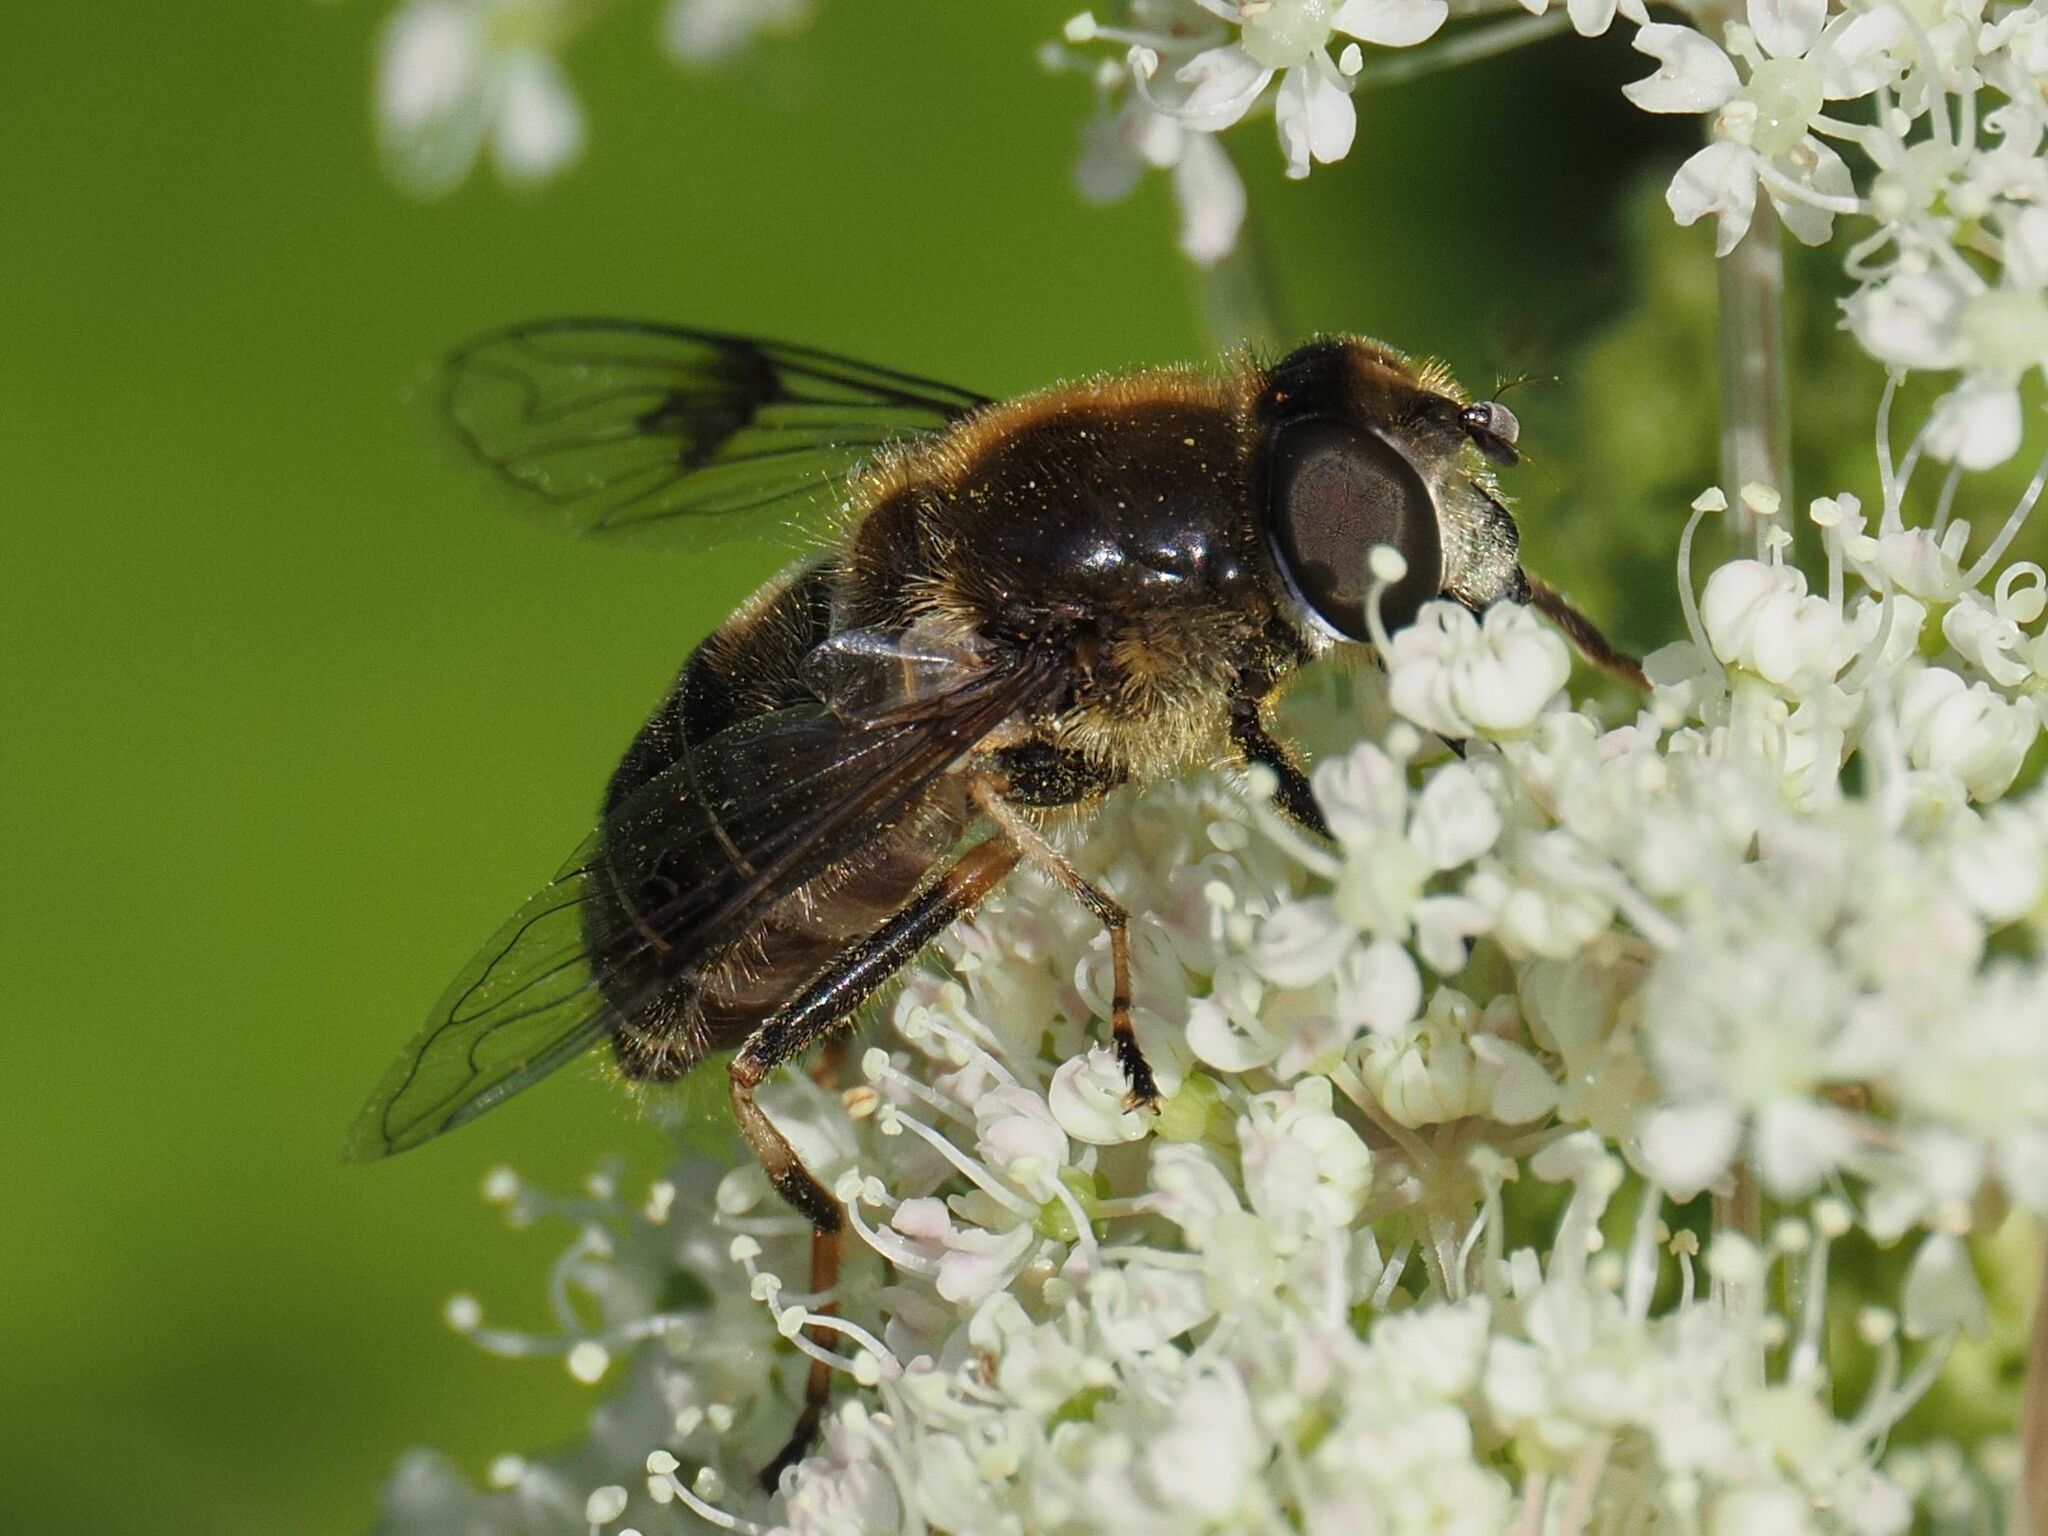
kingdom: Animalia
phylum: Arthropoda
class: Insecta
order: Diptera
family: Syrphidae
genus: Eristalis
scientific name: Eristalis rupium
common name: Hover fly
